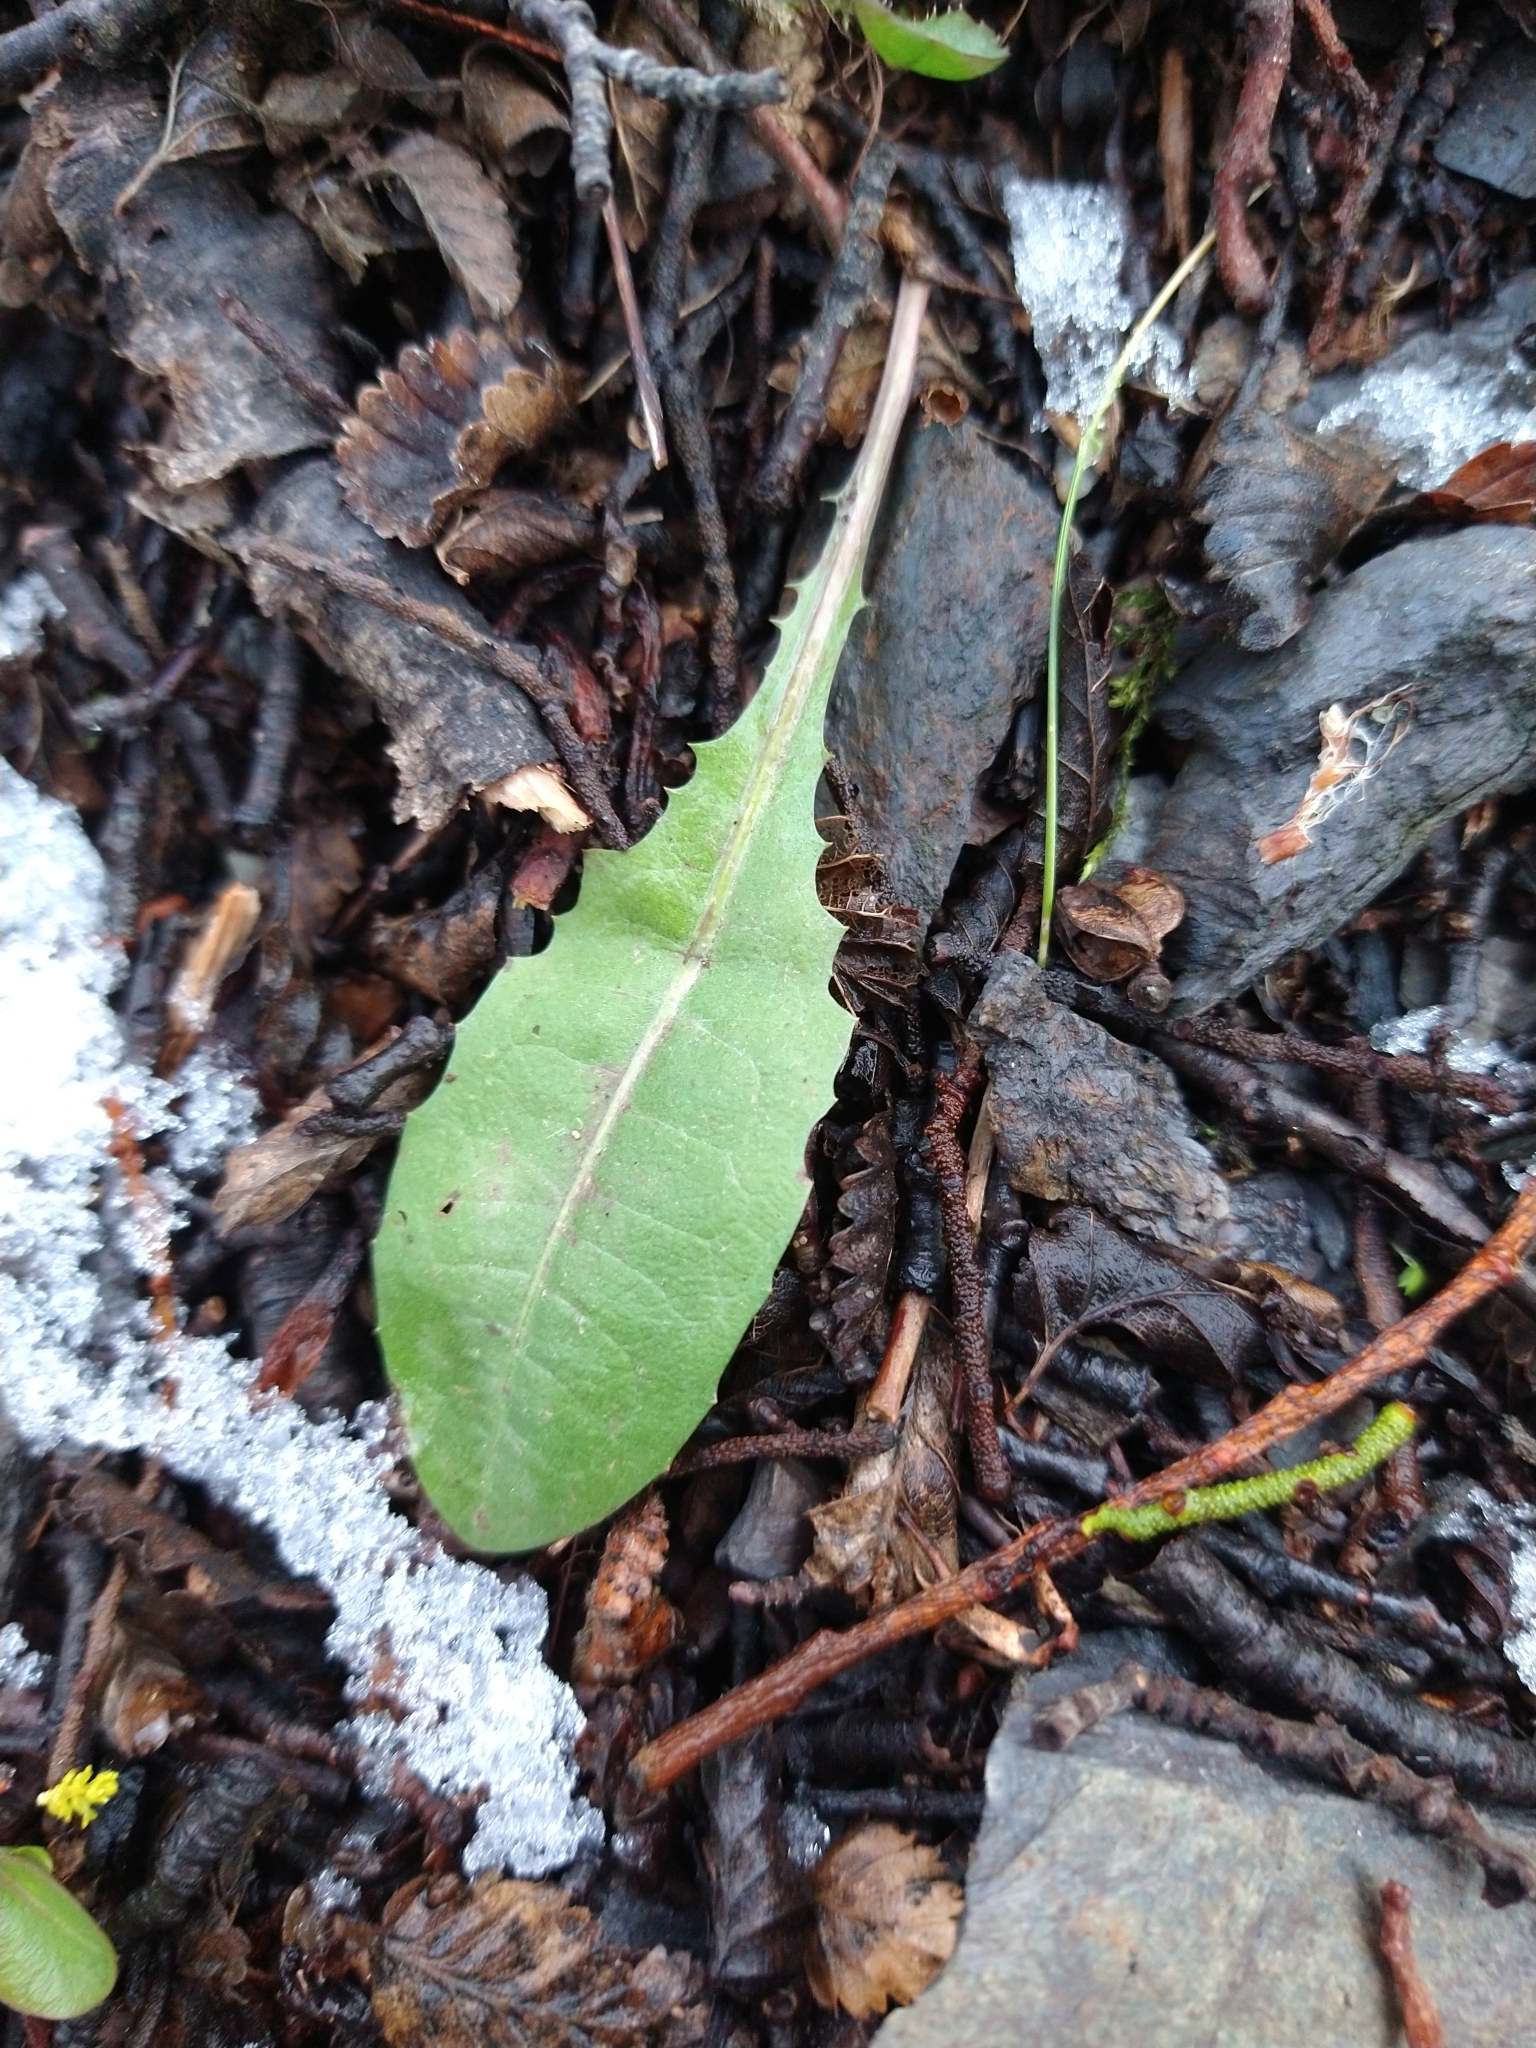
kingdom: Plantae
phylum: Tracheophyta
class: Magnoliopsida
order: Asterales
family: Asteraceae
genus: Taraxacum
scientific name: Taraxacum officinale
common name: Common dandelion
